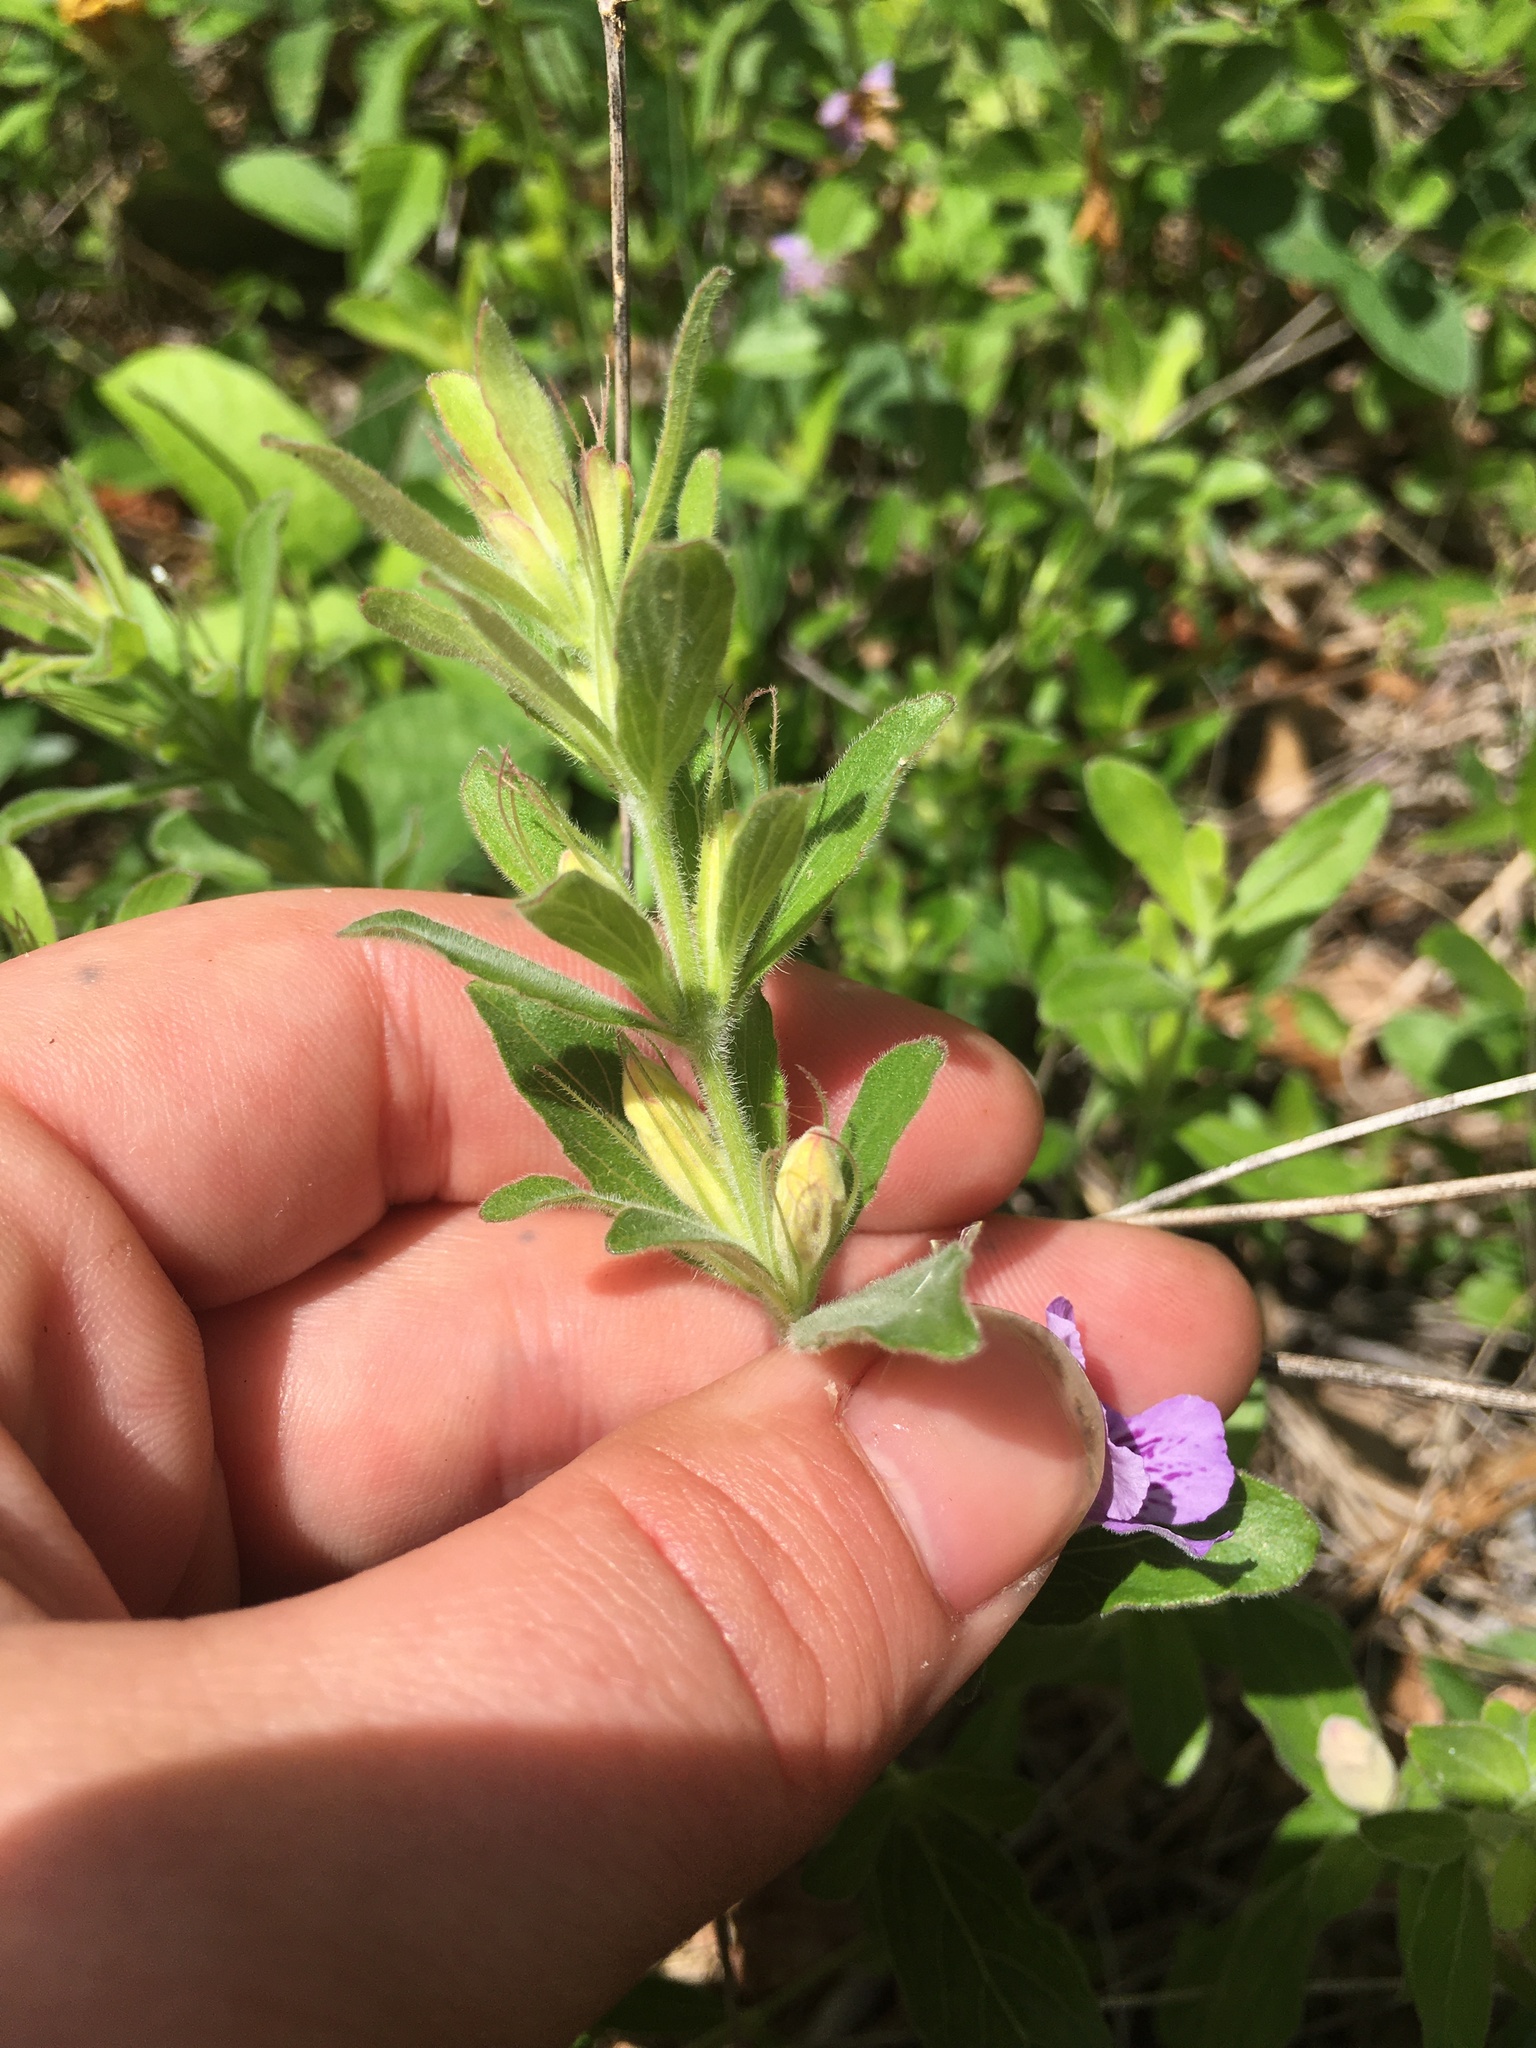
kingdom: Plantae
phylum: Tracheophyta
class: Magnoliopsida
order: Lamiales
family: Acanthaceae
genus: Dyschoriste
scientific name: Dyschoriste oblongifolia
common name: Blue twinflower
